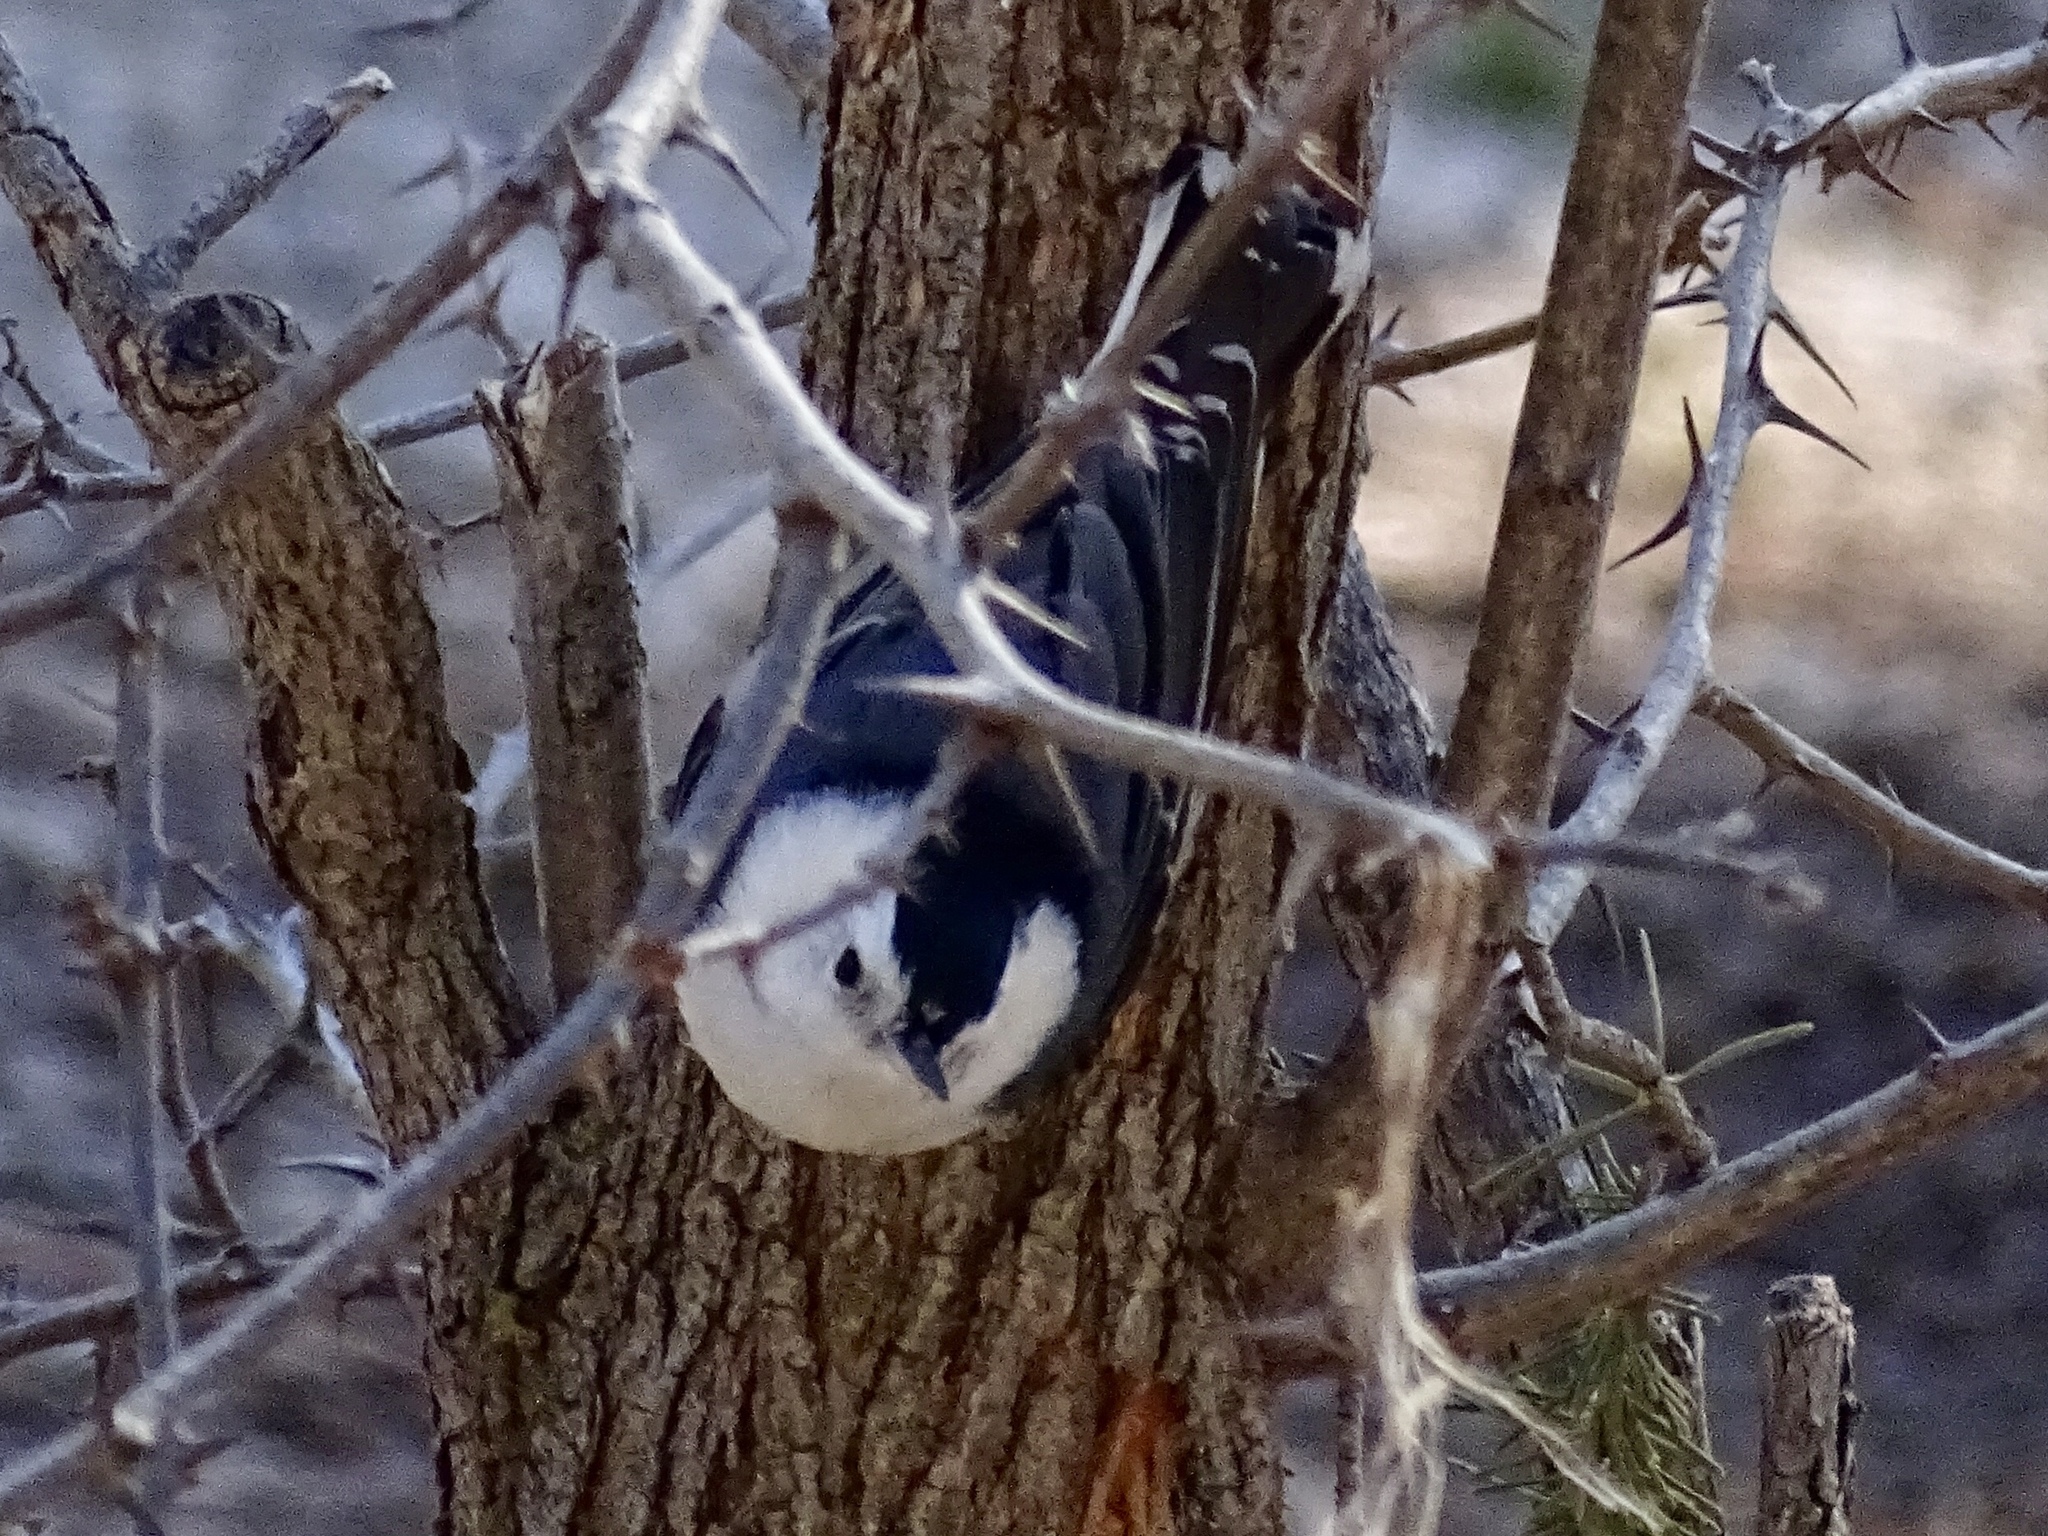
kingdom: Animalia
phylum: Chordata
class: Aves
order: Passeriformes
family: Sittidae
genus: Sitta
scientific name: Sitta carolinensis
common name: White-breasted nuthatch
